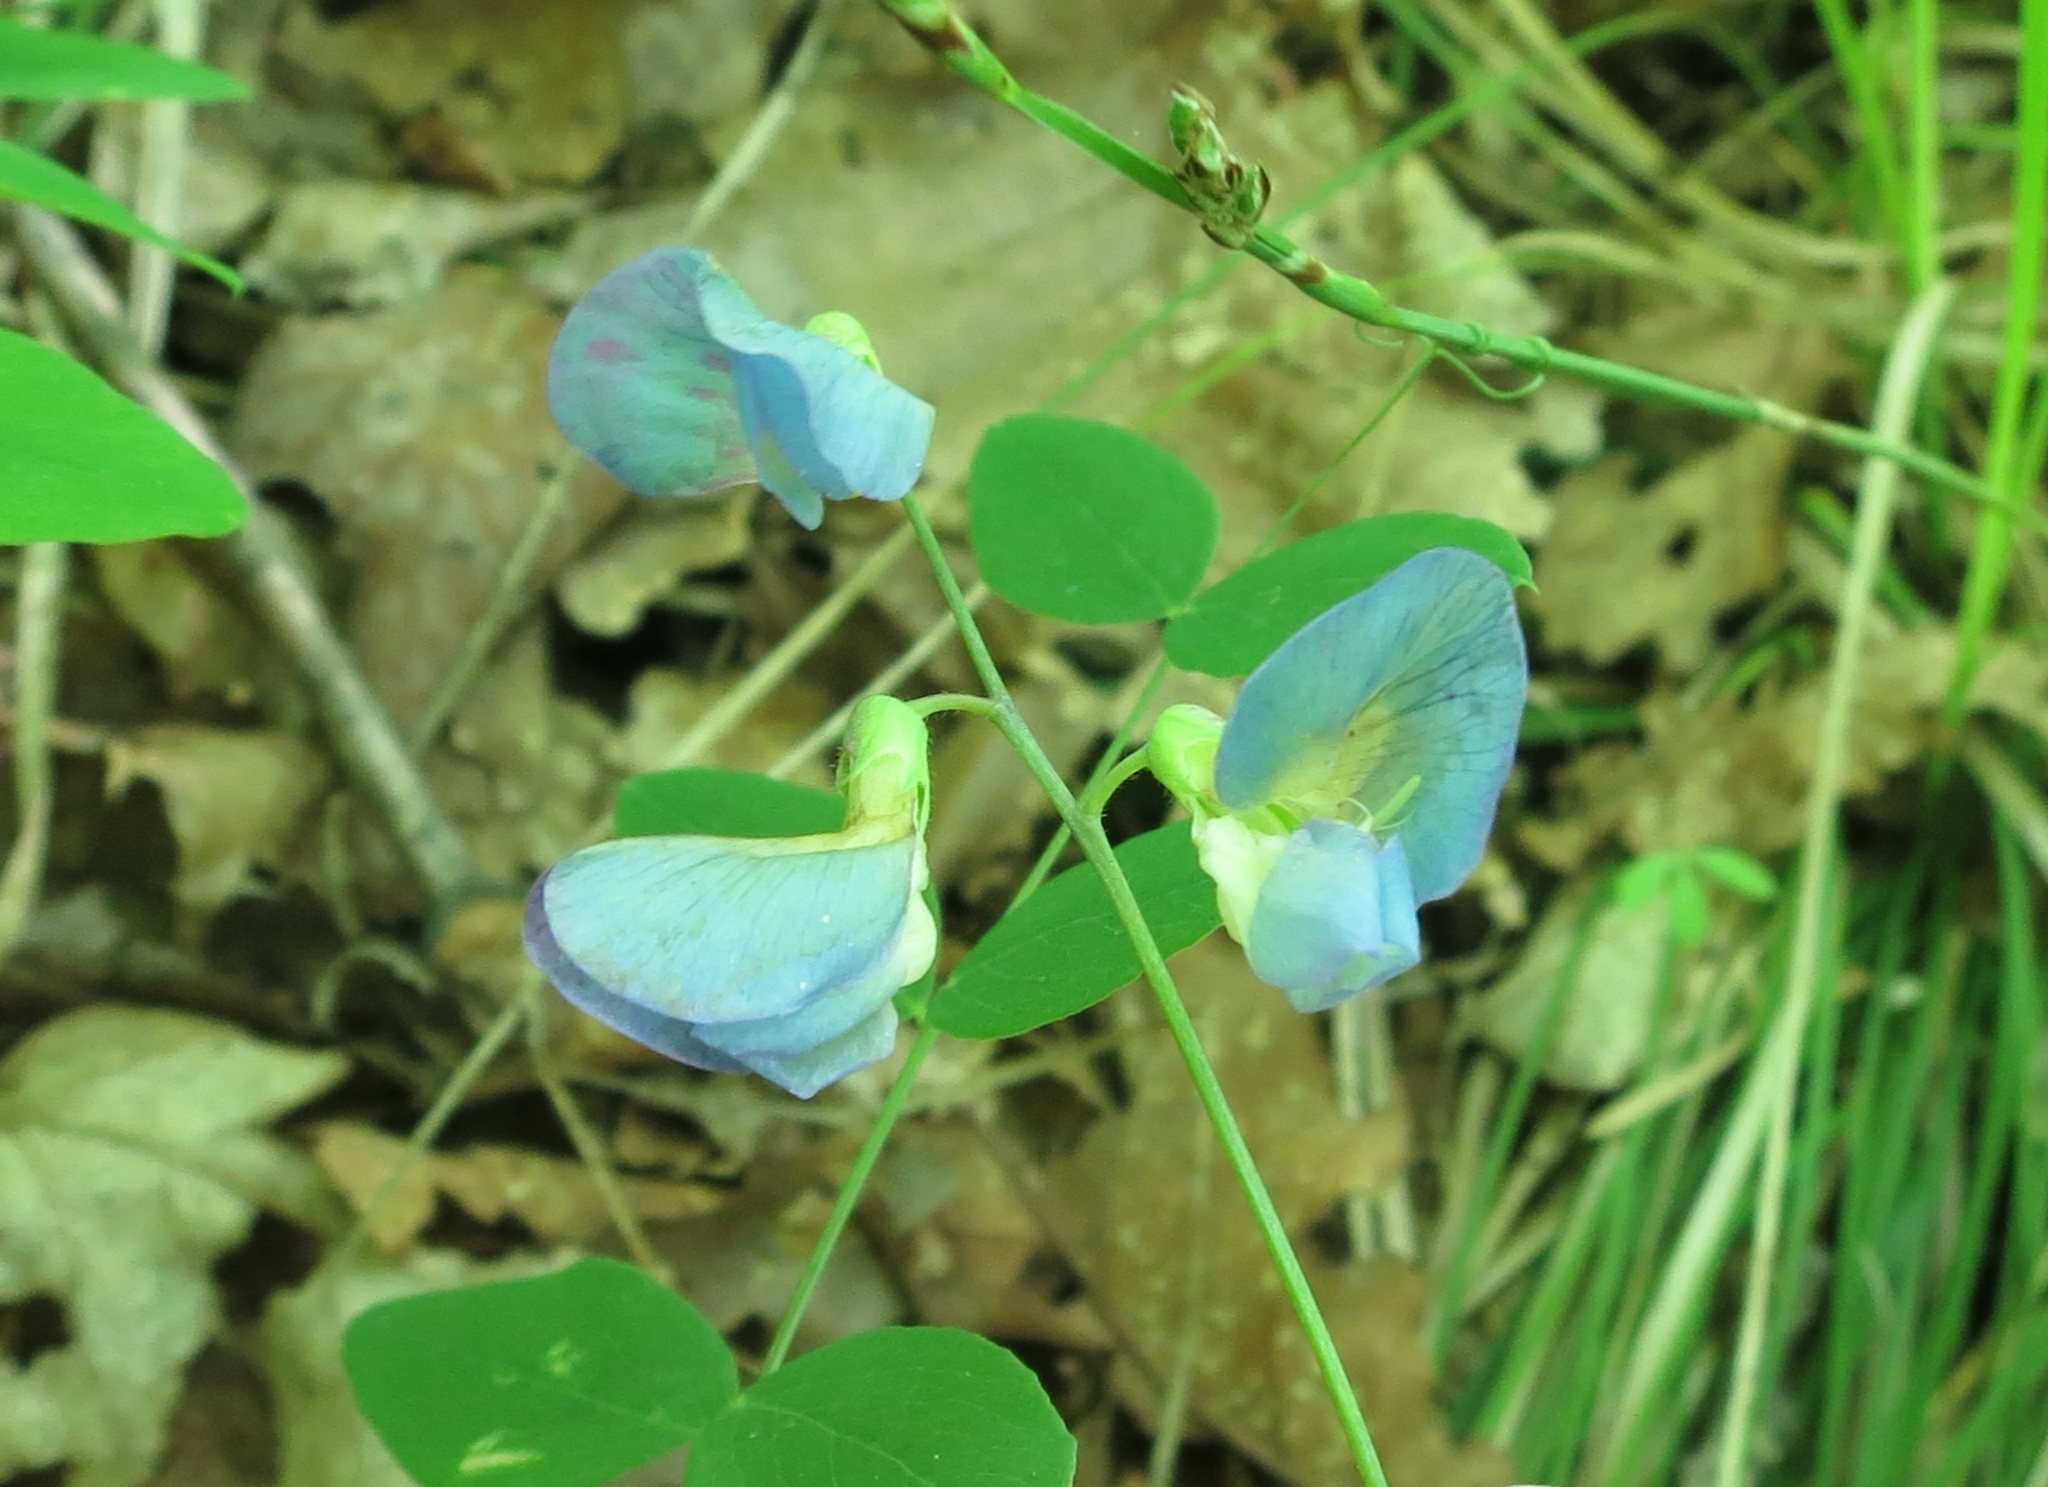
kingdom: Plantae
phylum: Tracheophyta
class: Magnoliopsida
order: Fabales
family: Fabaceae
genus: Lathyrus
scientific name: Lathyrus humilis
